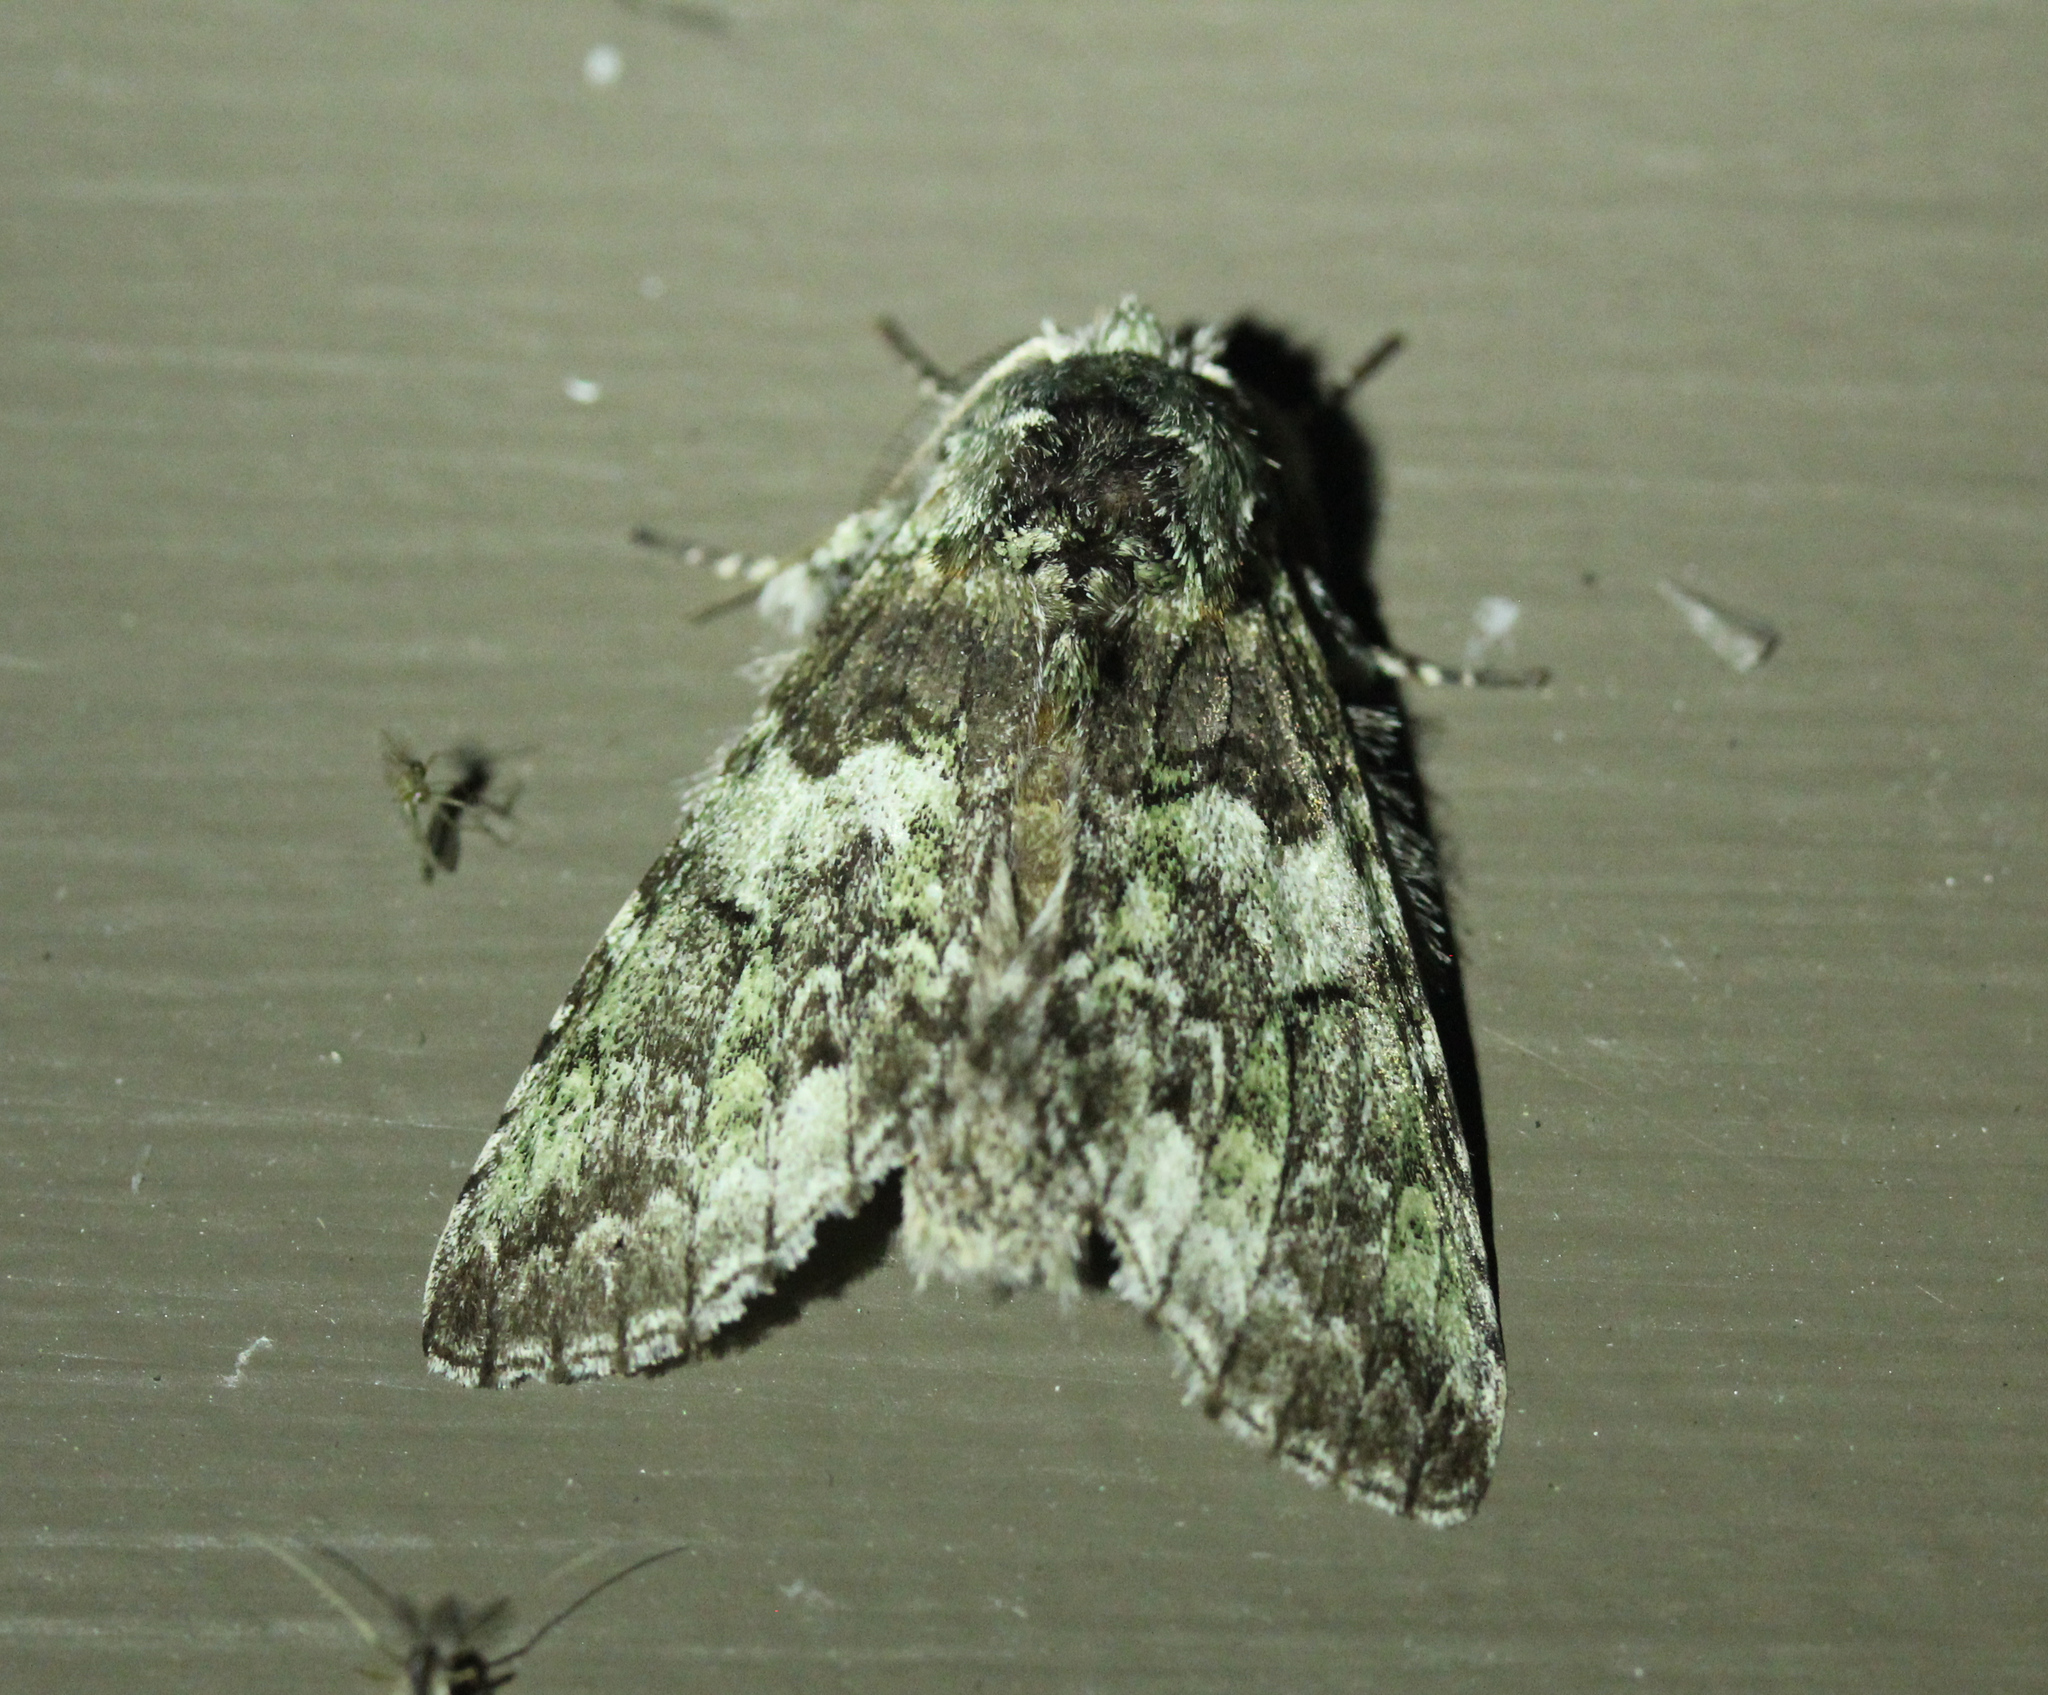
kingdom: Animalia
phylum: Arthropoda
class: Insecta
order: Lepidoptera
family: Notodontidae
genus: Macrurocampa
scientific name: Macrurocampa marthesia
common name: Mottled prominent
